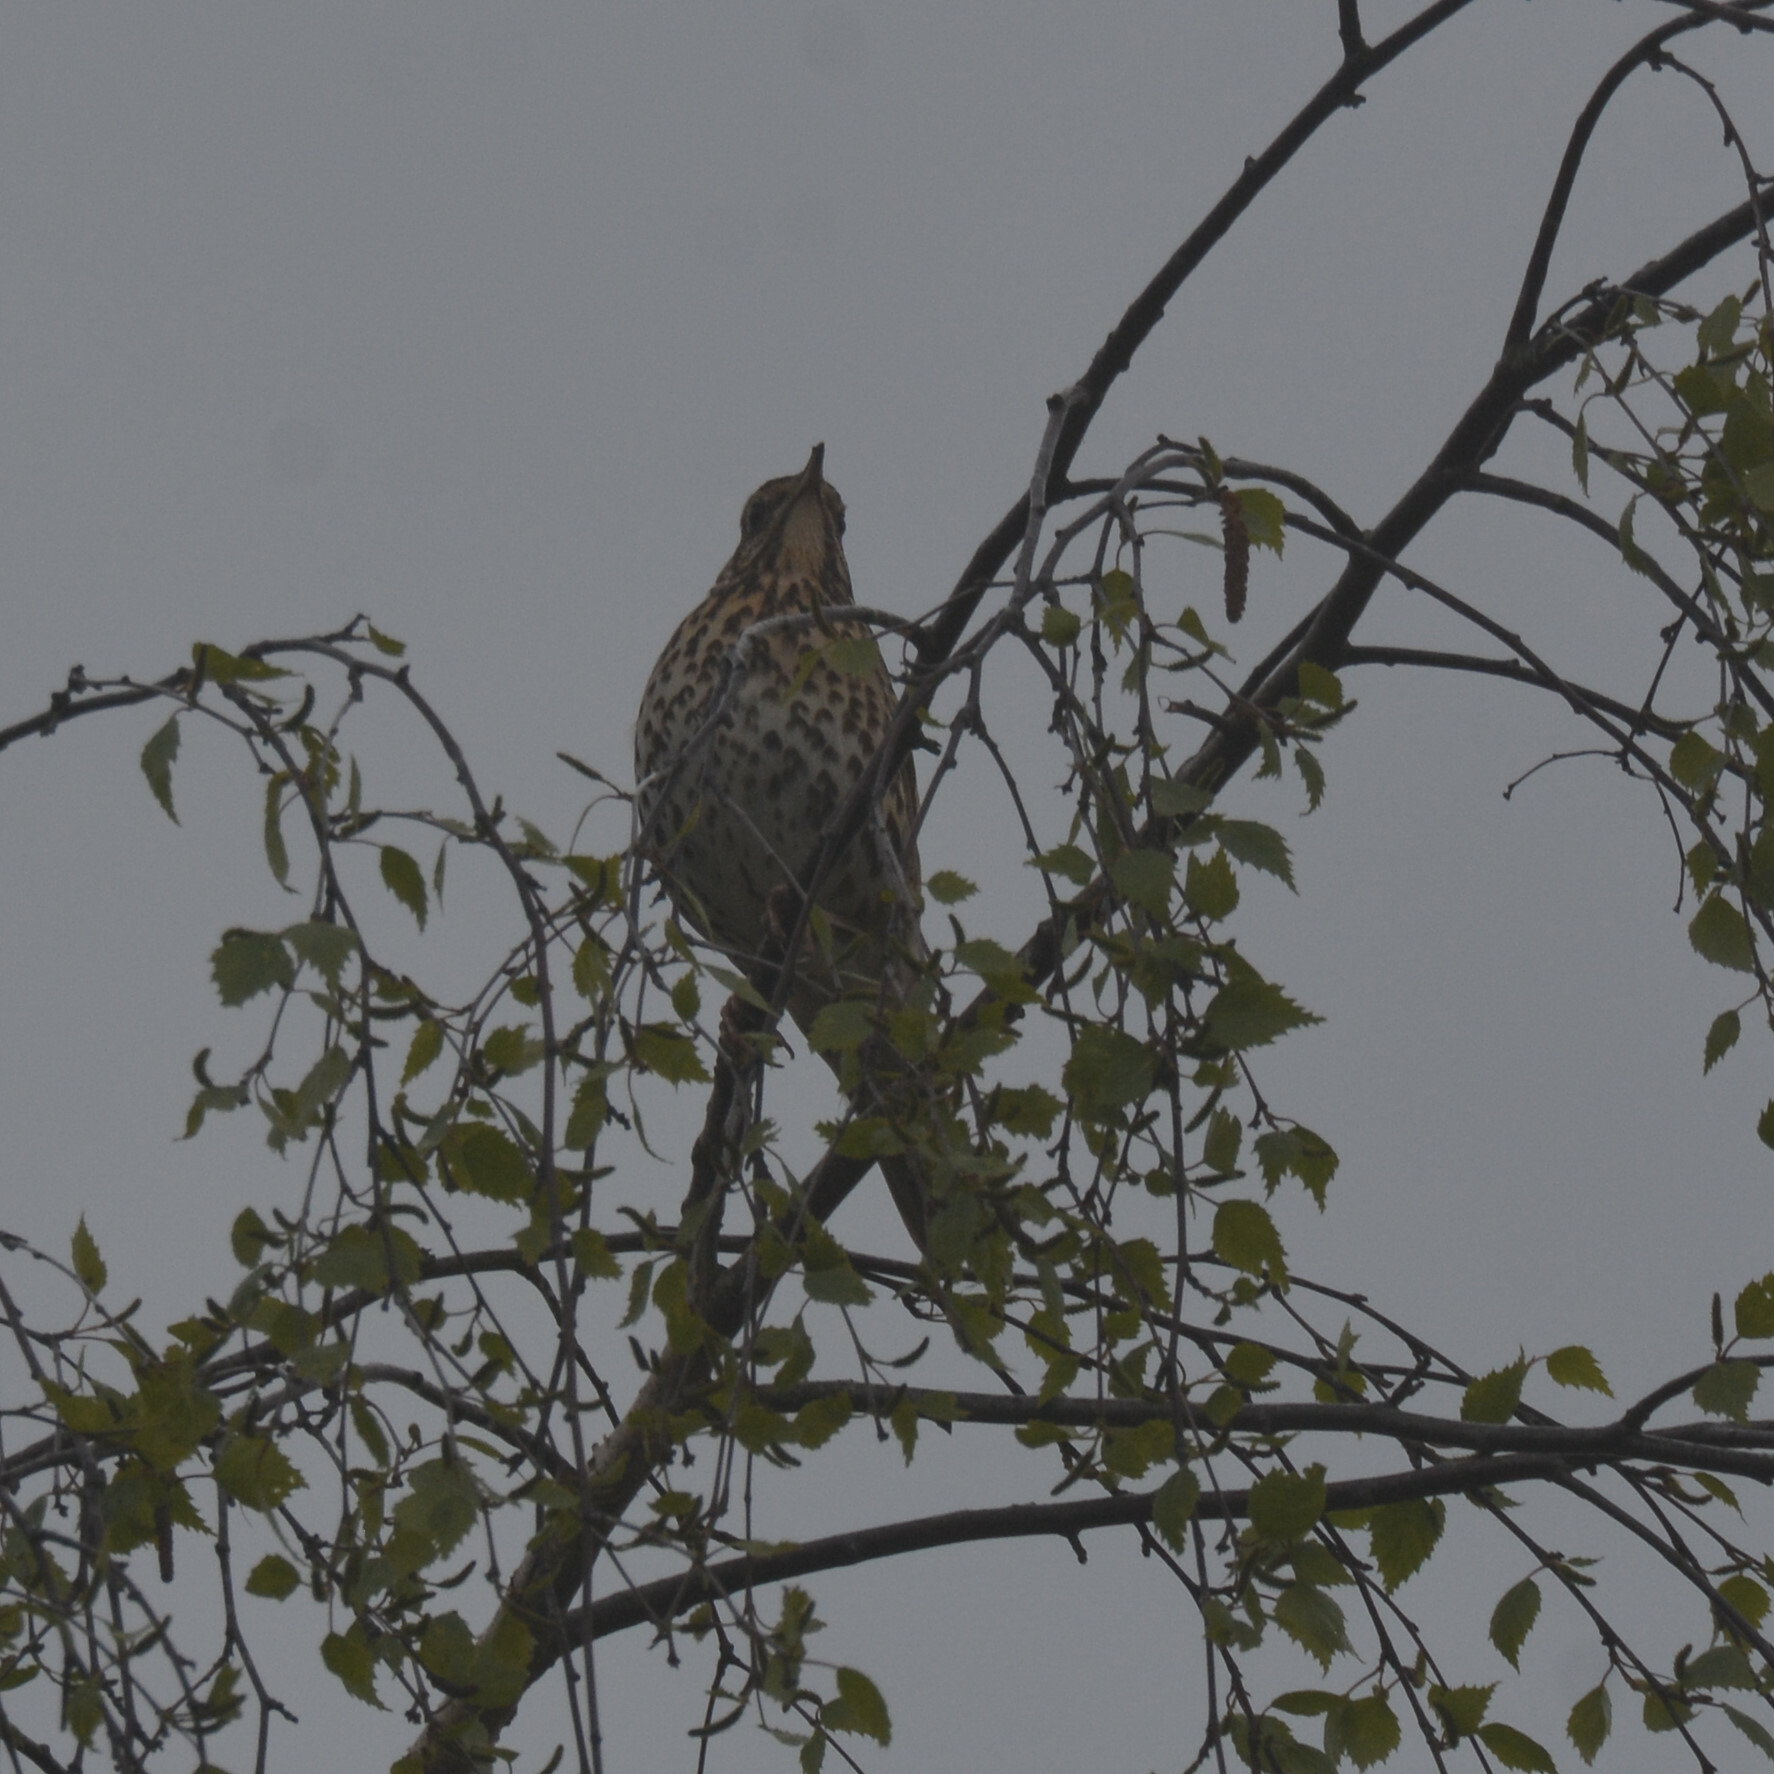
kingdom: Animalia
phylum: Chordata
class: Aves
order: Passeriformes
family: Turdidae
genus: Turdus
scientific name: Turdus philomelos
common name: Song thrush
